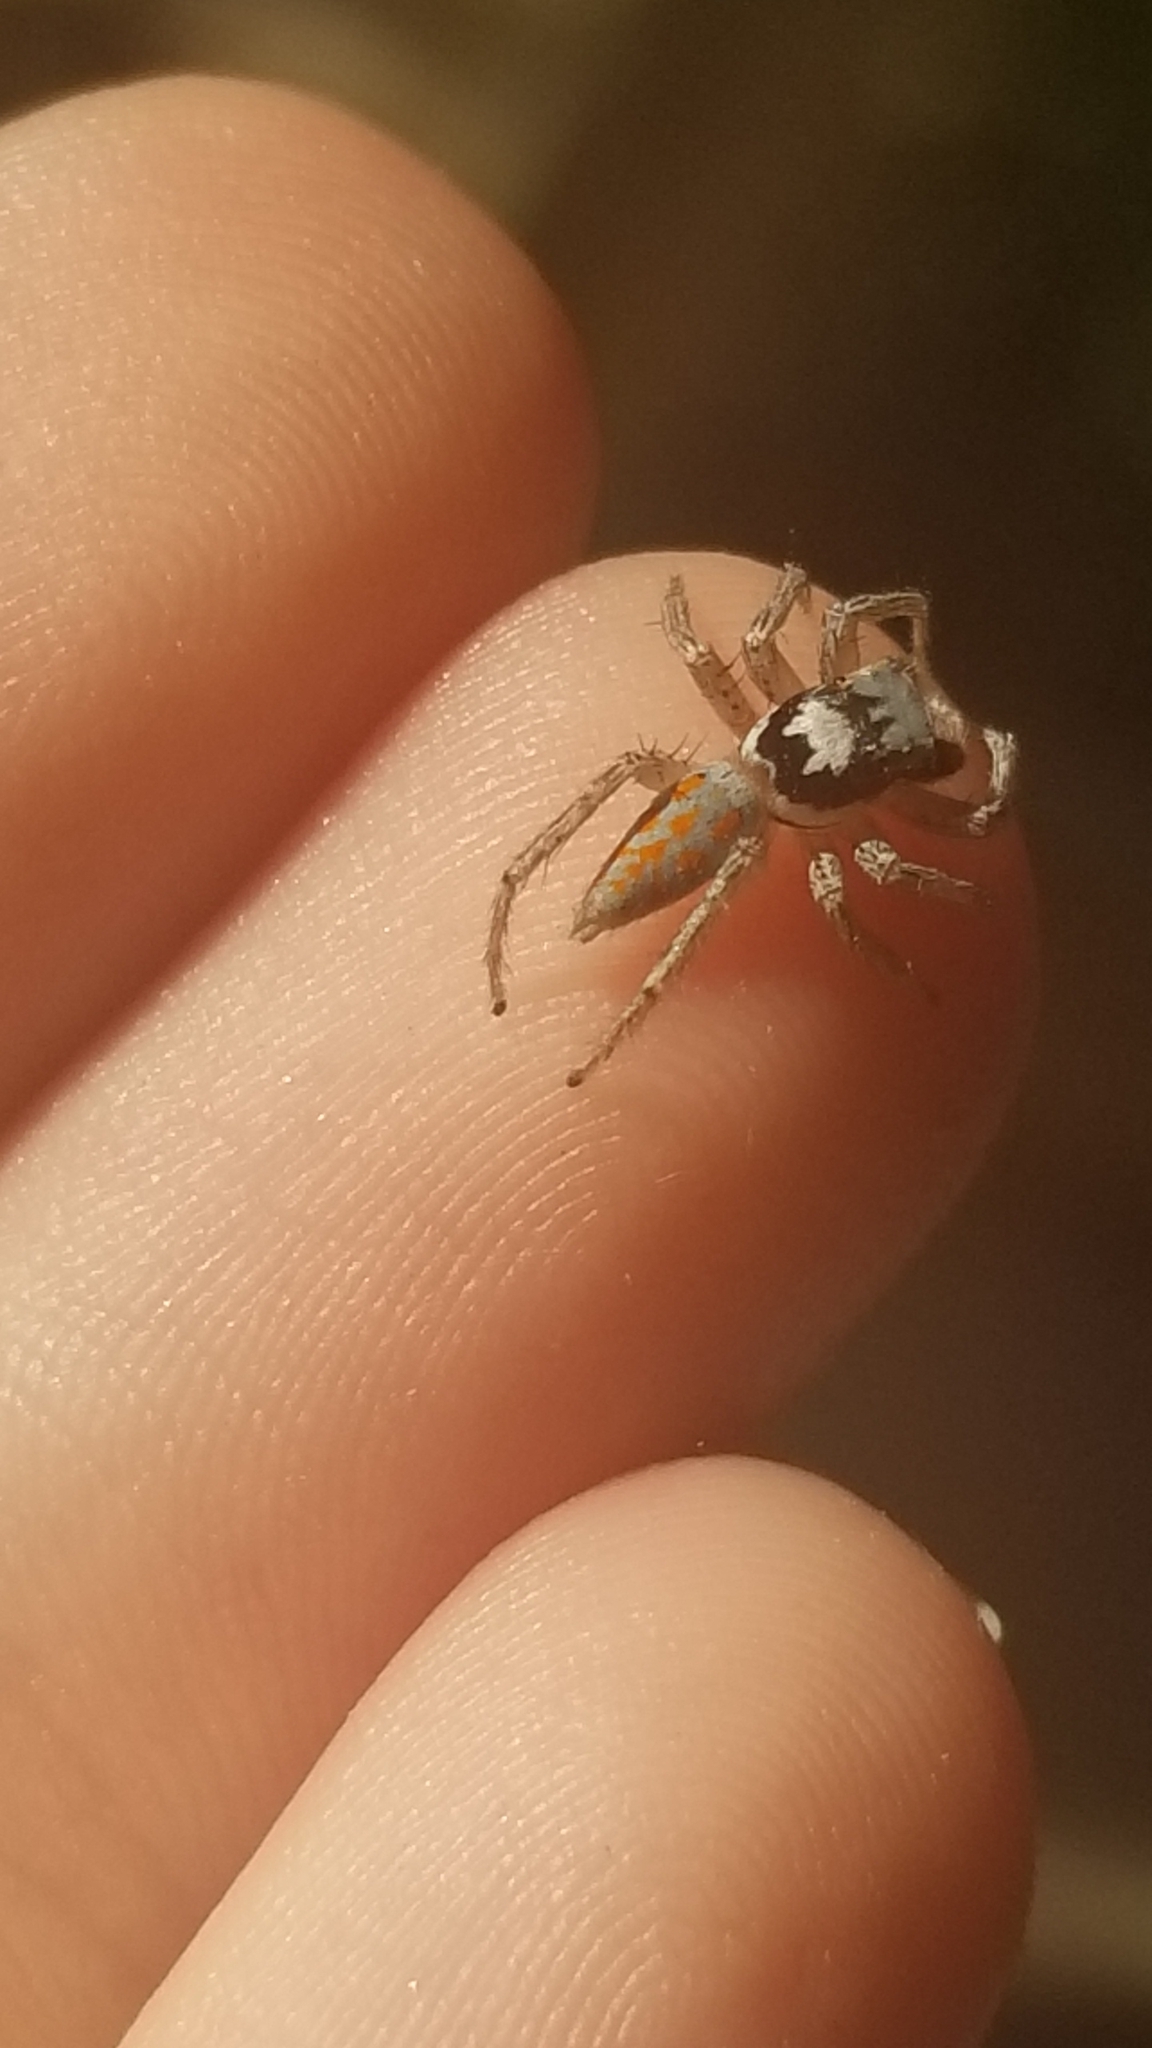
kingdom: Animalia
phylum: Arthropoda
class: Arachnida
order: Araneae
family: Salticidae
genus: Paramaevia
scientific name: Paramaevia poultoni
